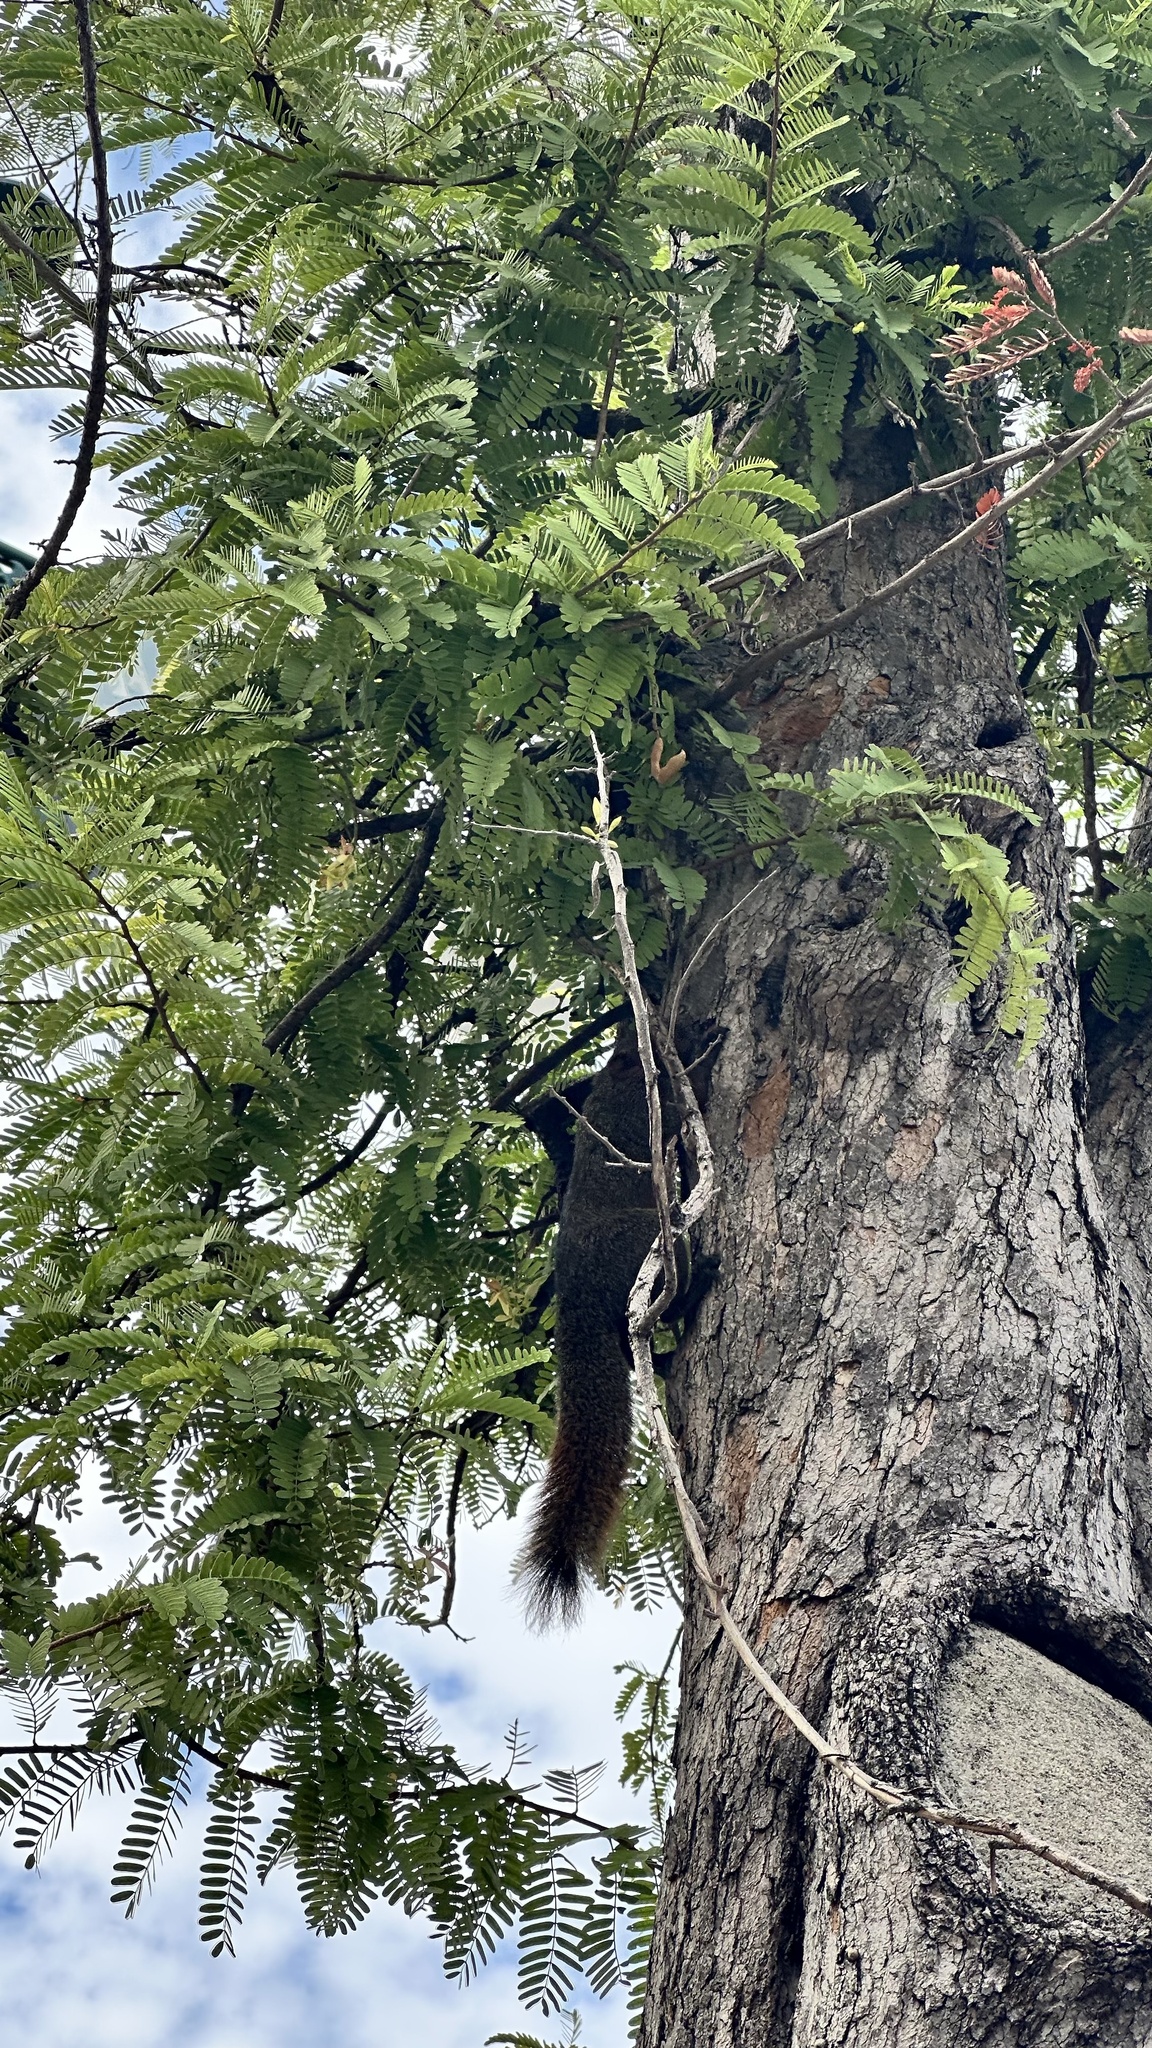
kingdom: Animalia
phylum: Chordata
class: Mammalia
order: Rodentia
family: Sciuridae
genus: Callosciurus
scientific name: Callosciurus erythraeus
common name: Pallas's squirrel
